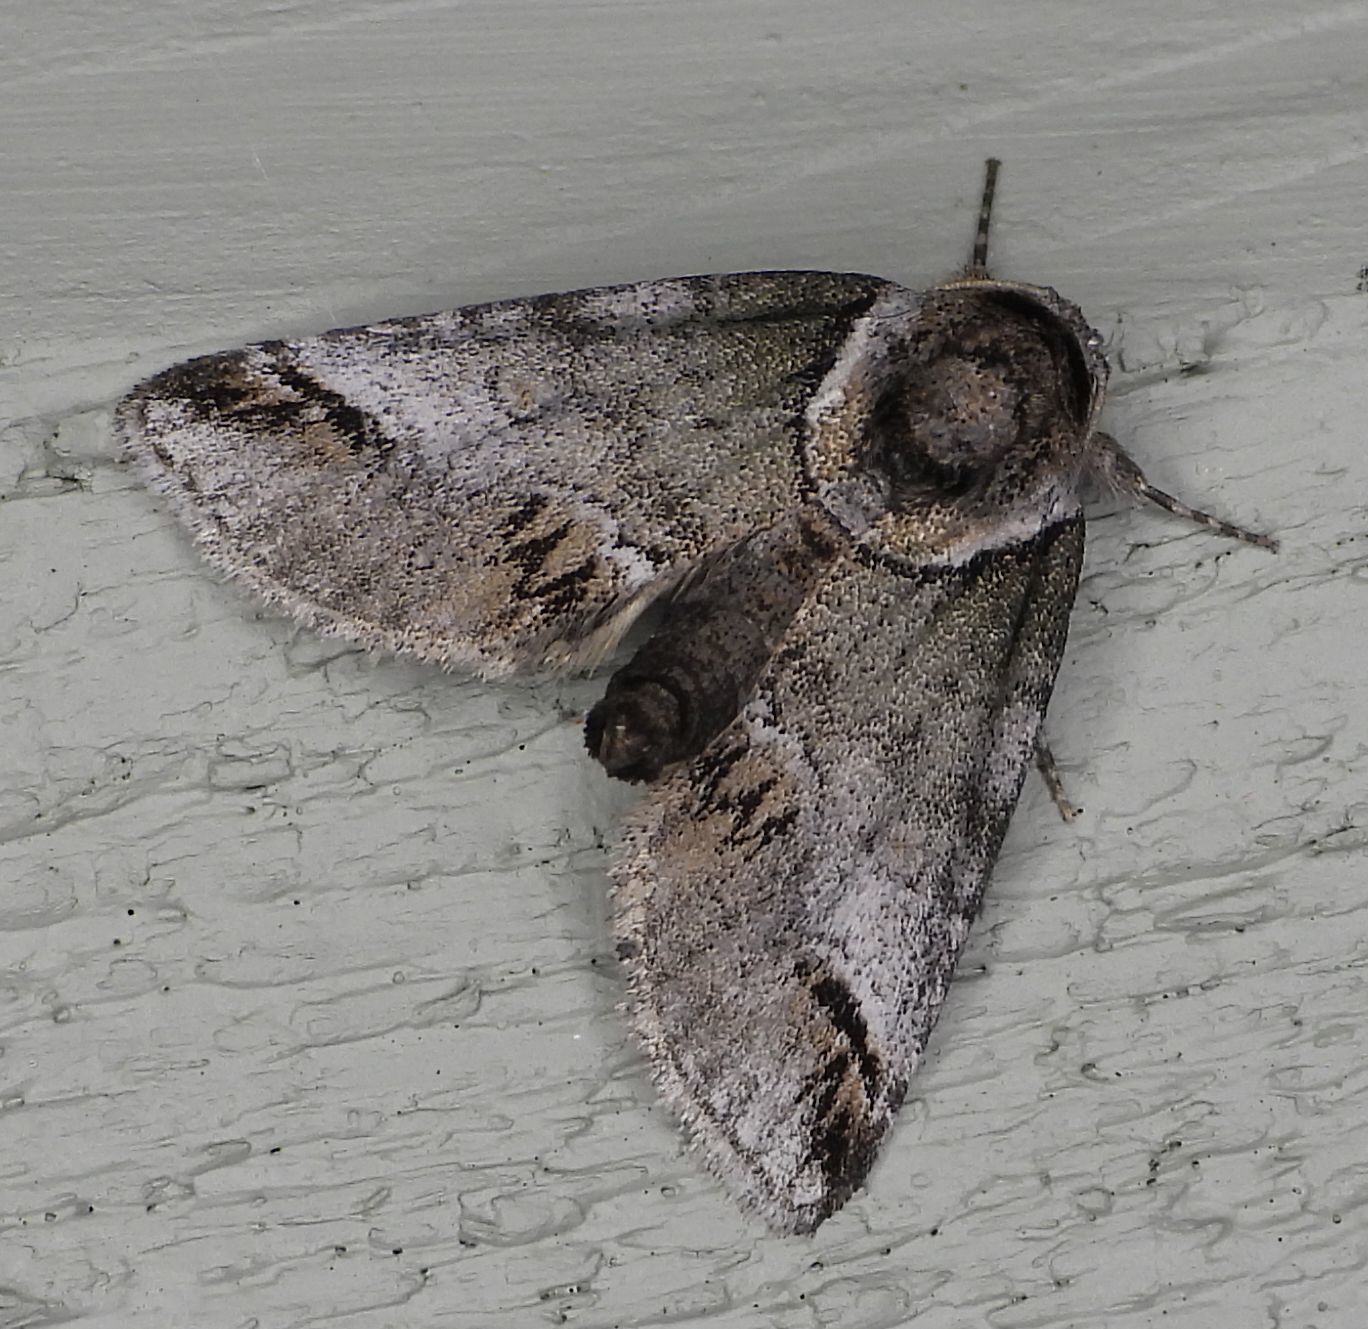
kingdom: Animalia
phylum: Arthropoda
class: Insecta
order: Lepidoptera
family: Nolidae
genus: Baileya
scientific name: Baileya australis
